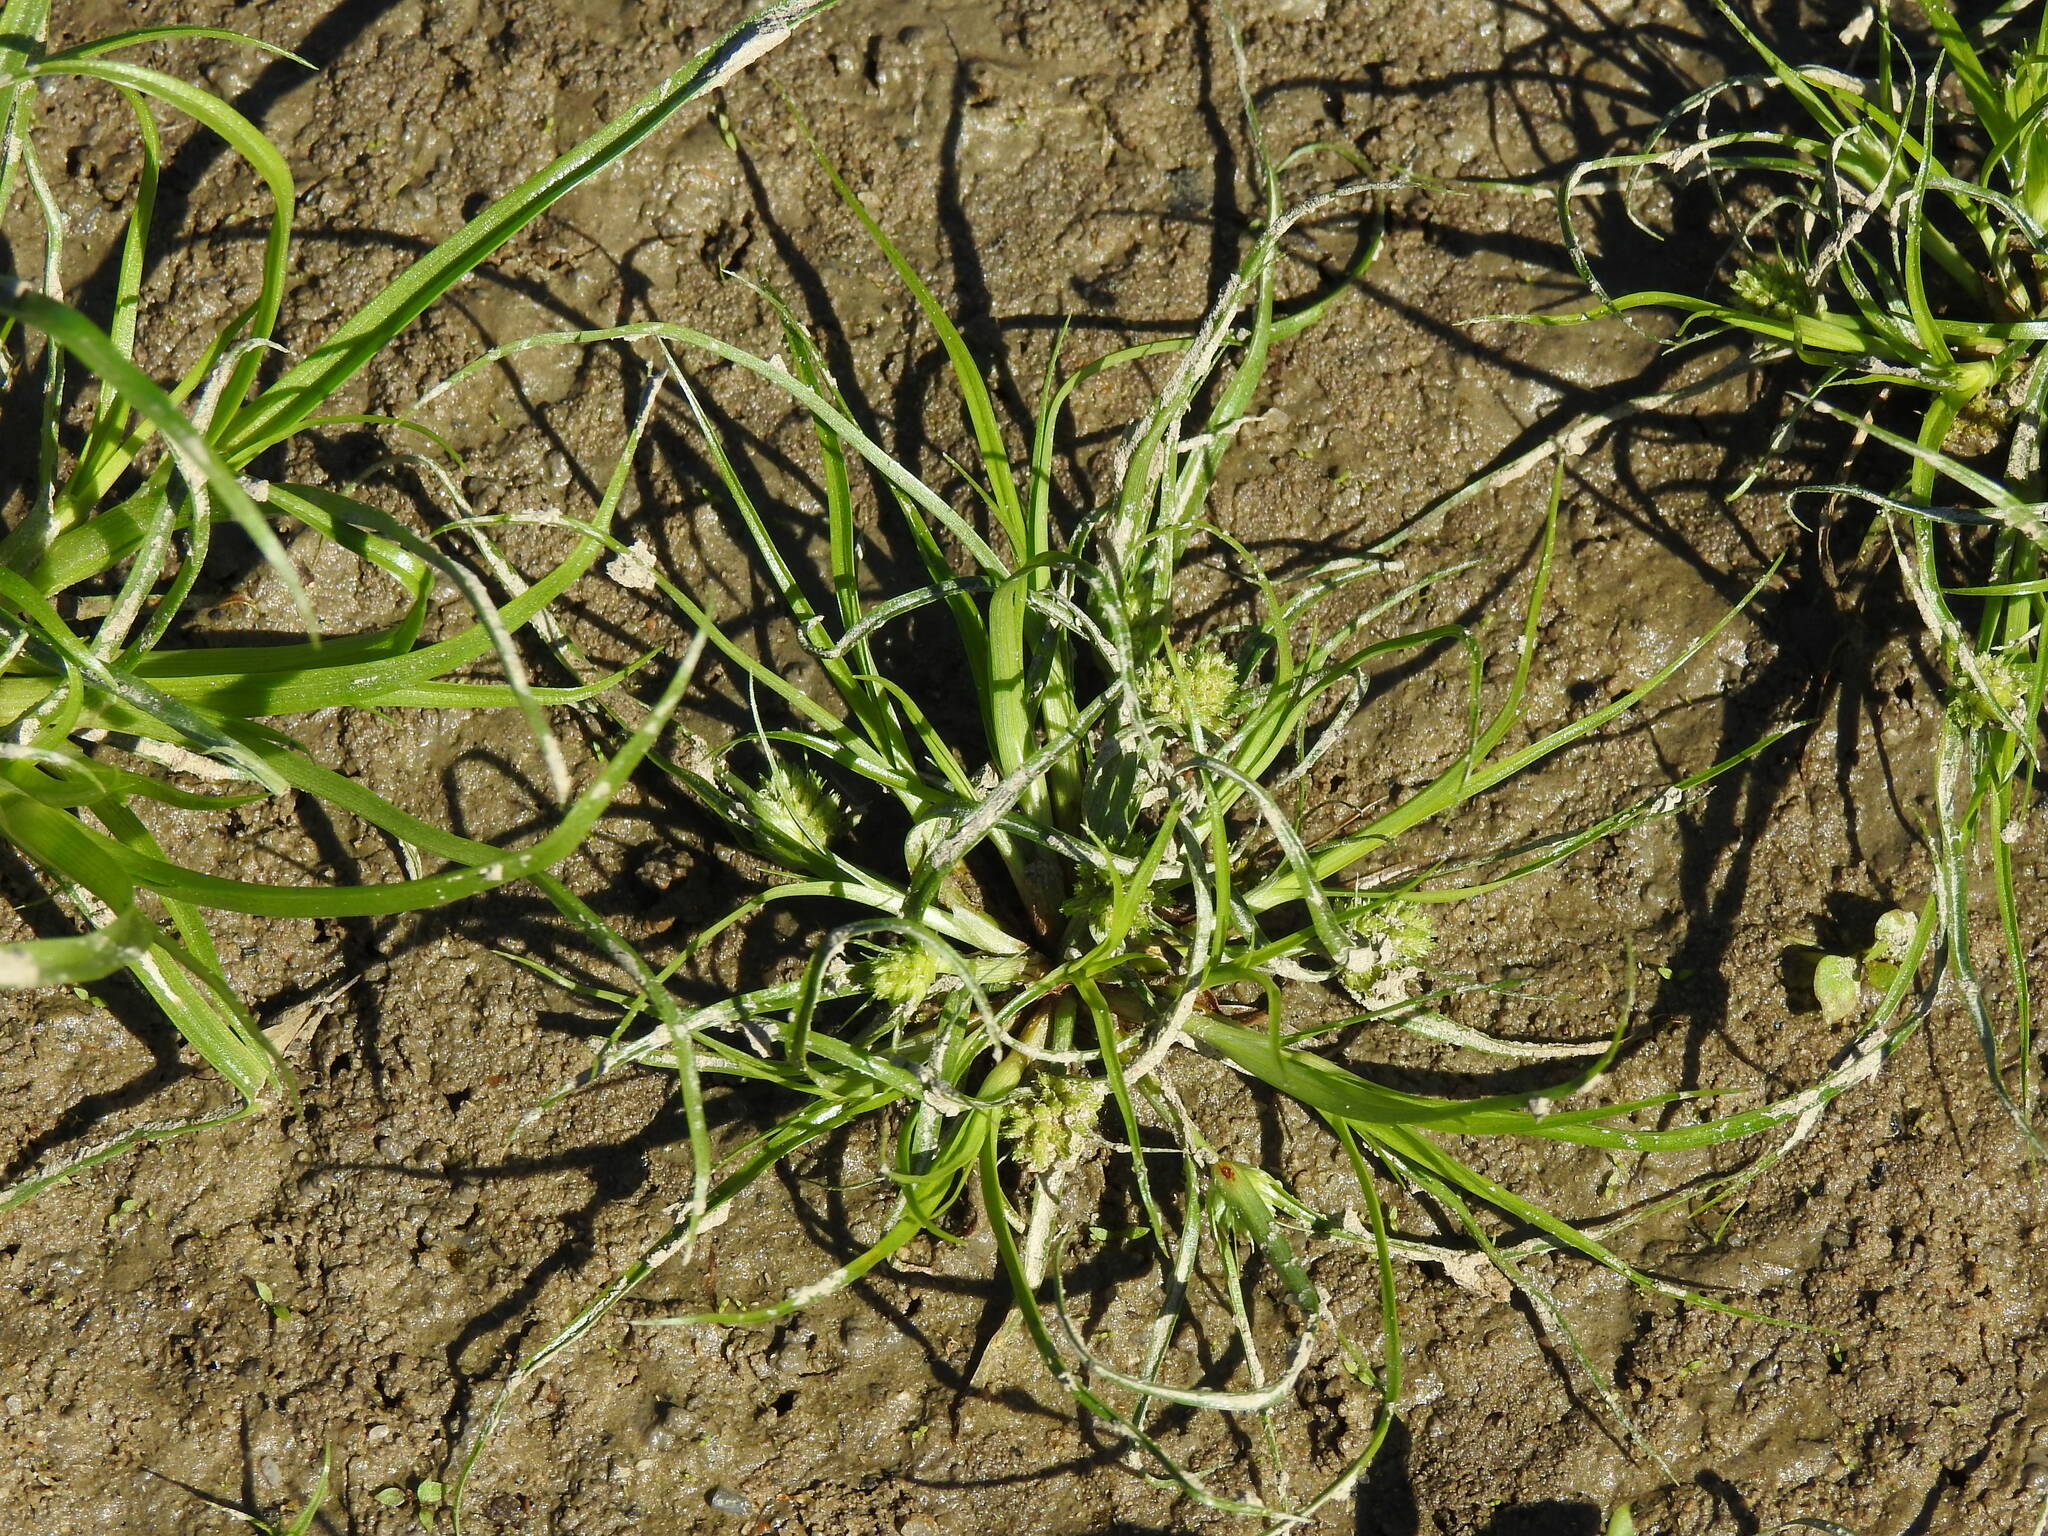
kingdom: Plantae
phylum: Tracheophyta
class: Liliopsida
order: Poales
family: Cyperaceae
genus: Cyperus
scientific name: Cyperus michelianus
